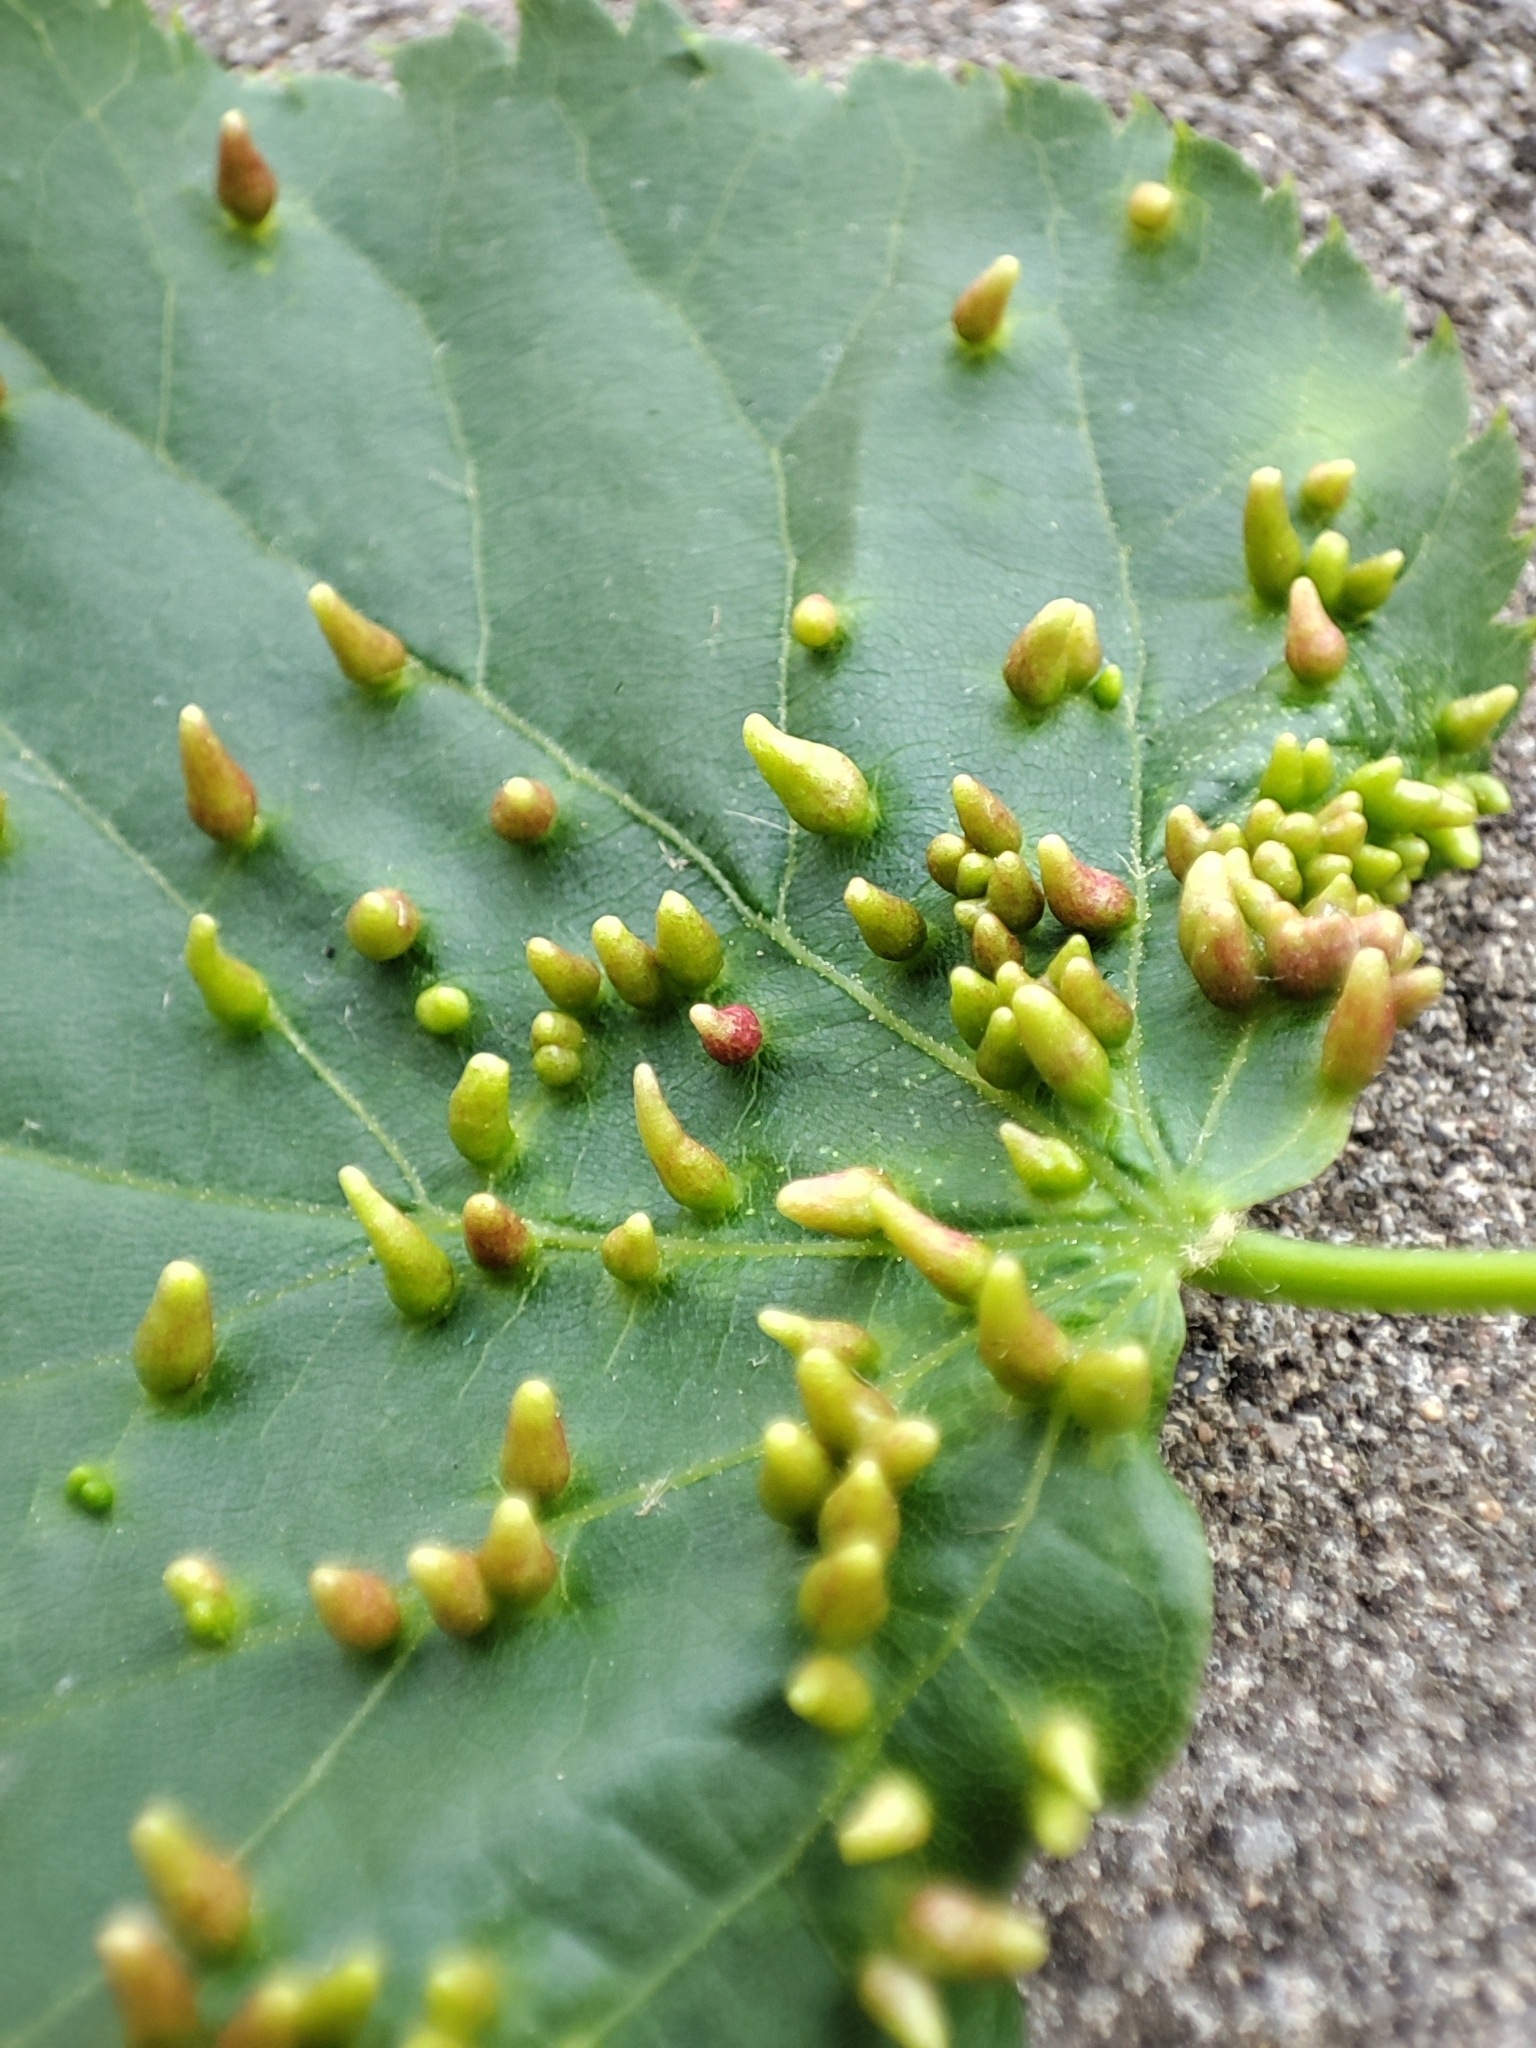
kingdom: Animalia
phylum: Arthropoda
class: Arachnida
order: Trombidiformes
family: Eriophyidae
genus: Eriophyes
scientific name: Eriophyes tiliae
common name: Red nail gall mite
